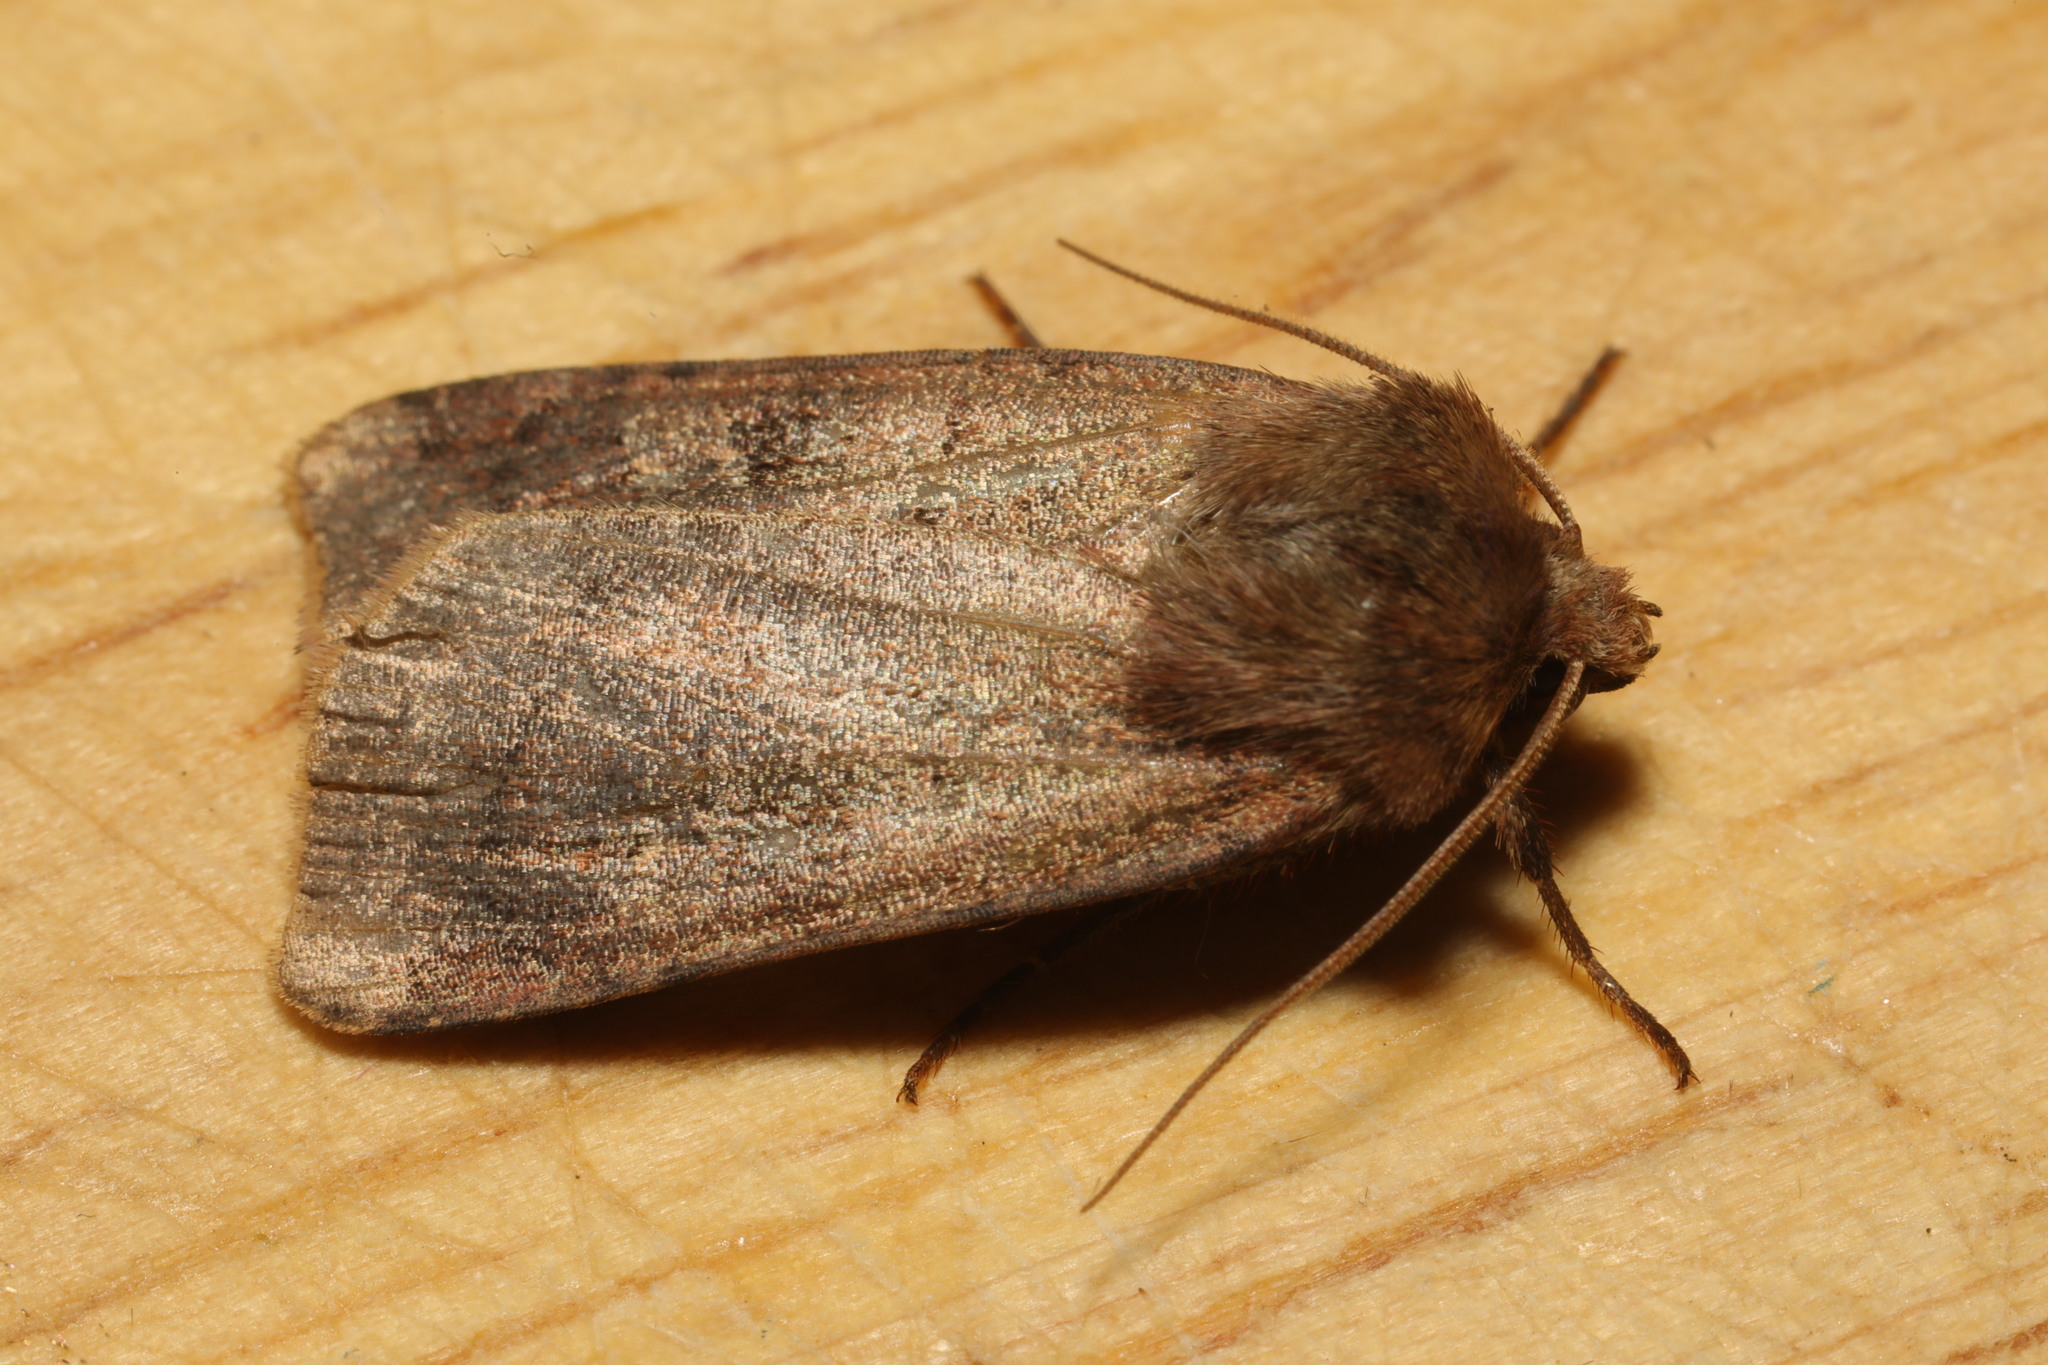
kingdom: Animalia
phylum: Arthropoda
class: Insecta
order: Lepidoptera
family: Noctuidae
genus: Diarsia
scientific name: Diarsia rubi
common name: Small square-spot
